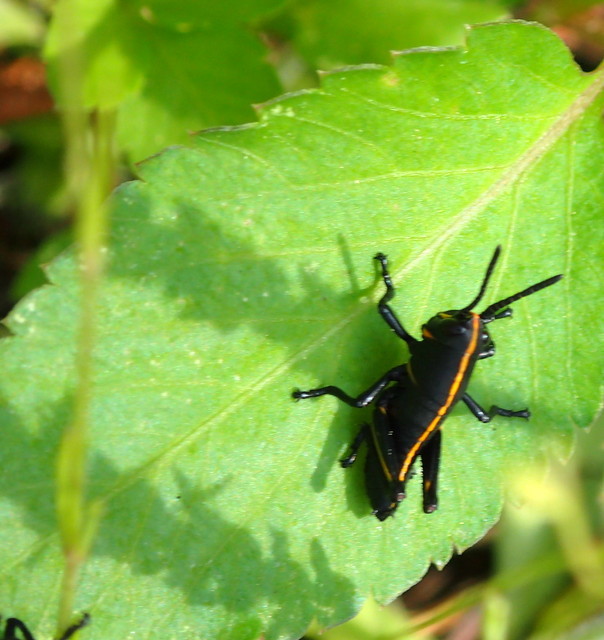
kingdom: Animalia
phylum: Arthropoda
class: Insecta
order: Orthoptera
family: Romaleidae
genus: Romalea
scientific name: Romalea microptera
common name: Eastern lubber grasshopper
